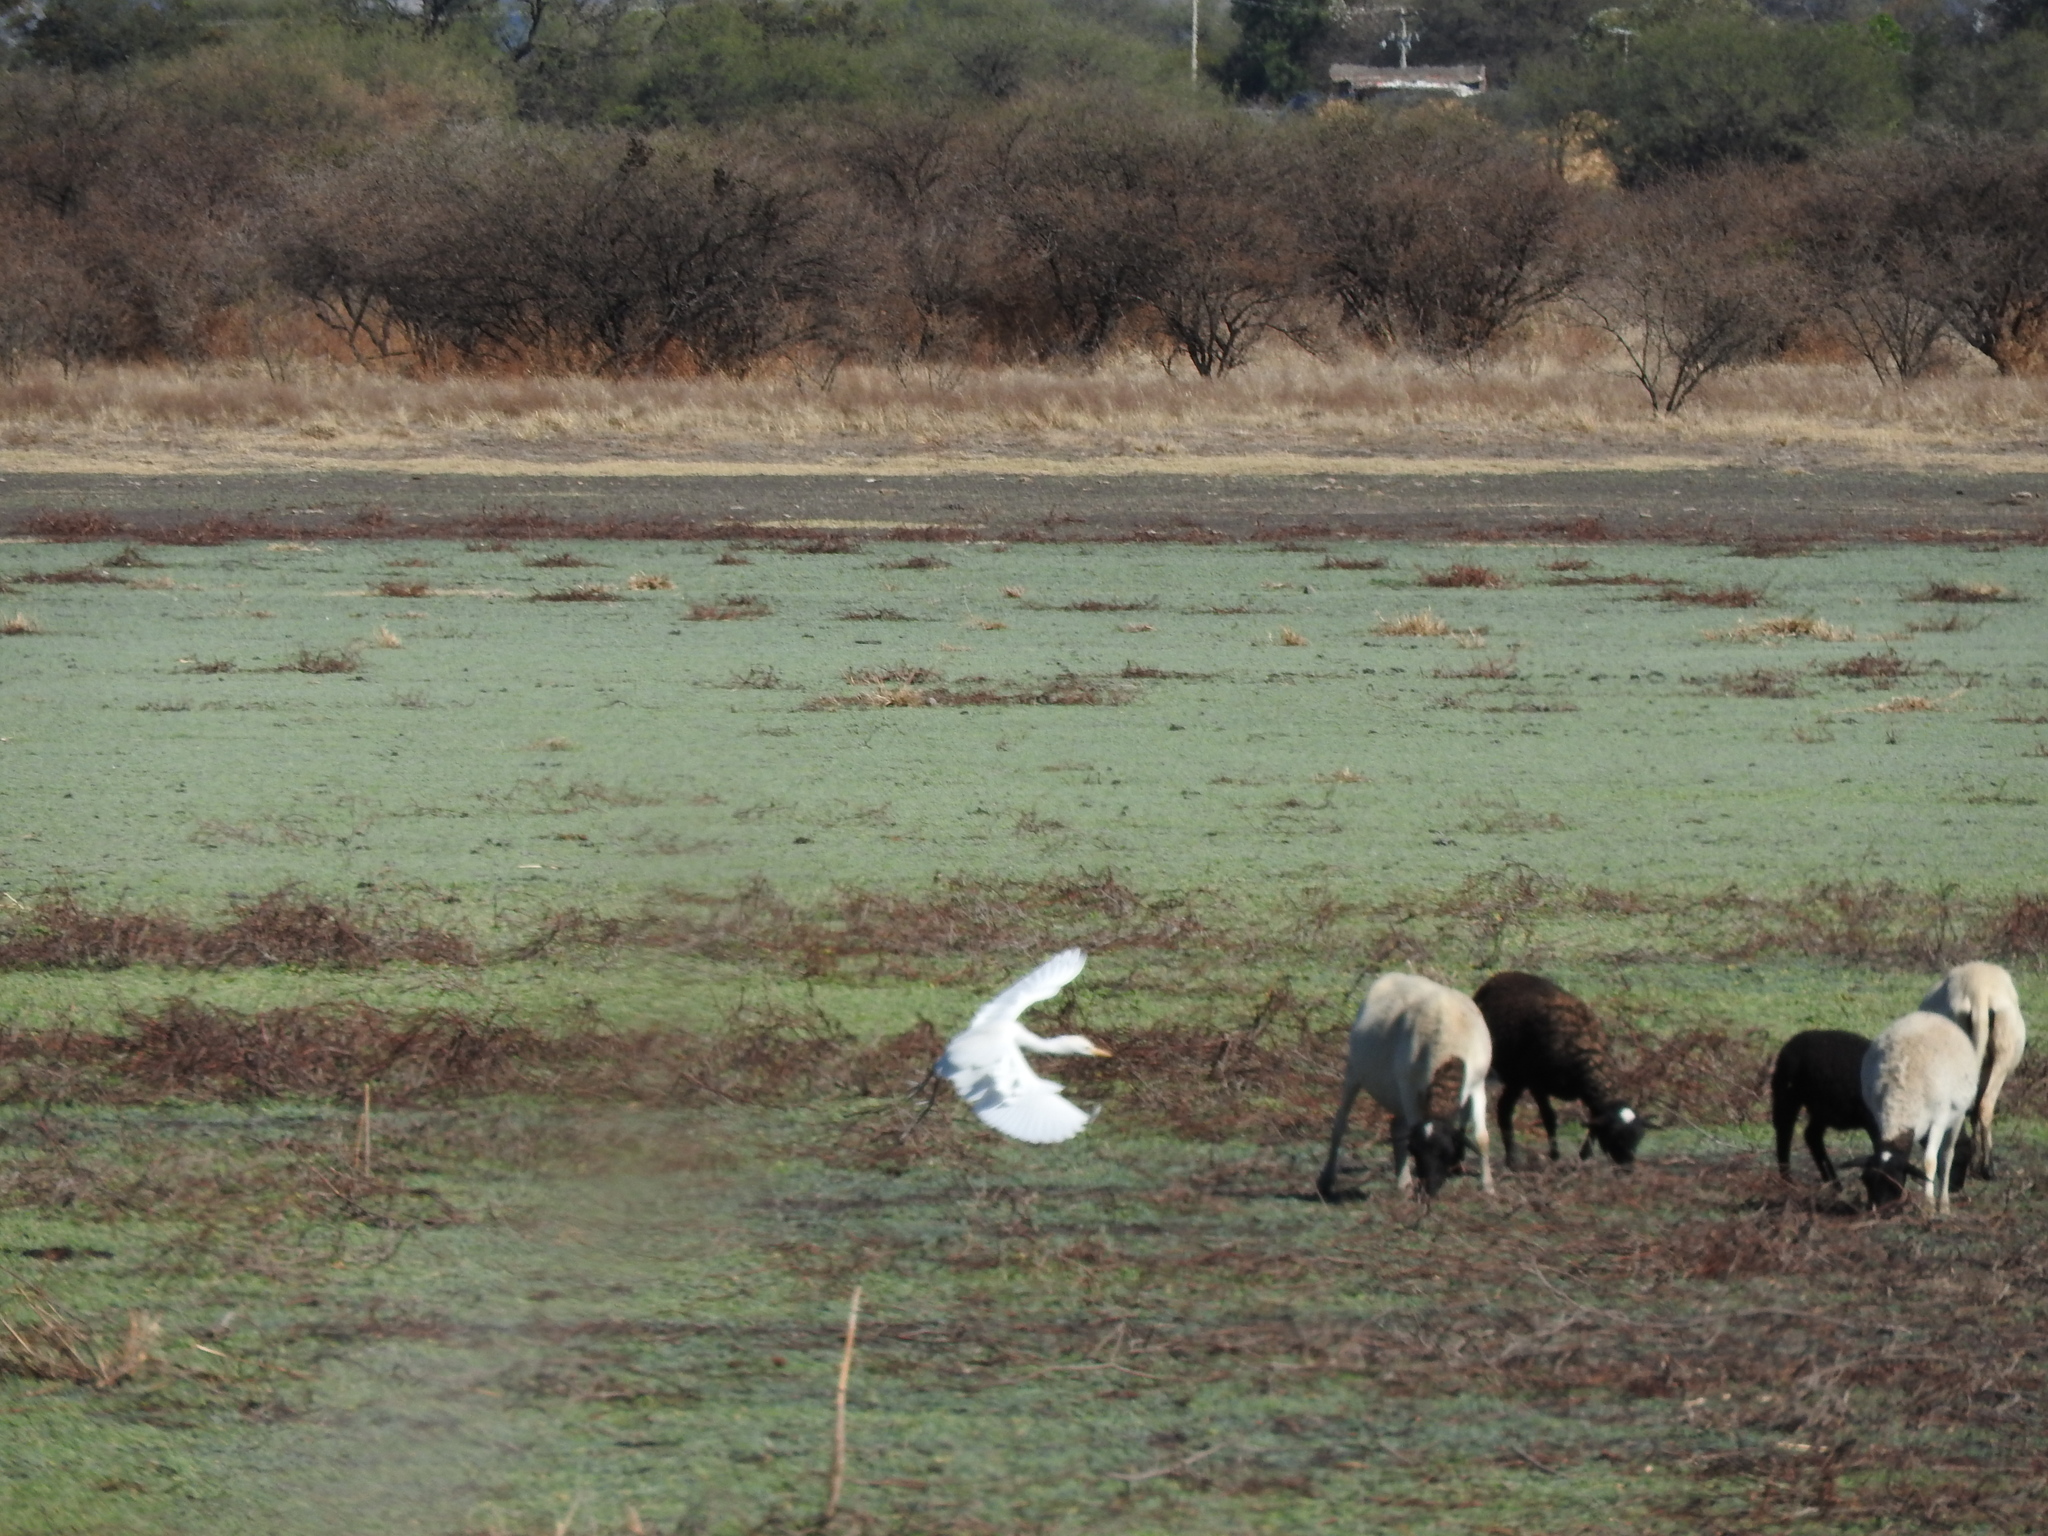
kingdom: Animalia
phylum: Chordata
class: Aves
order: Pelecaniformes
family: Ardeidae
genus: Bubulcus
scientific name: Bubulcus ibis
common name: Cattle egret
